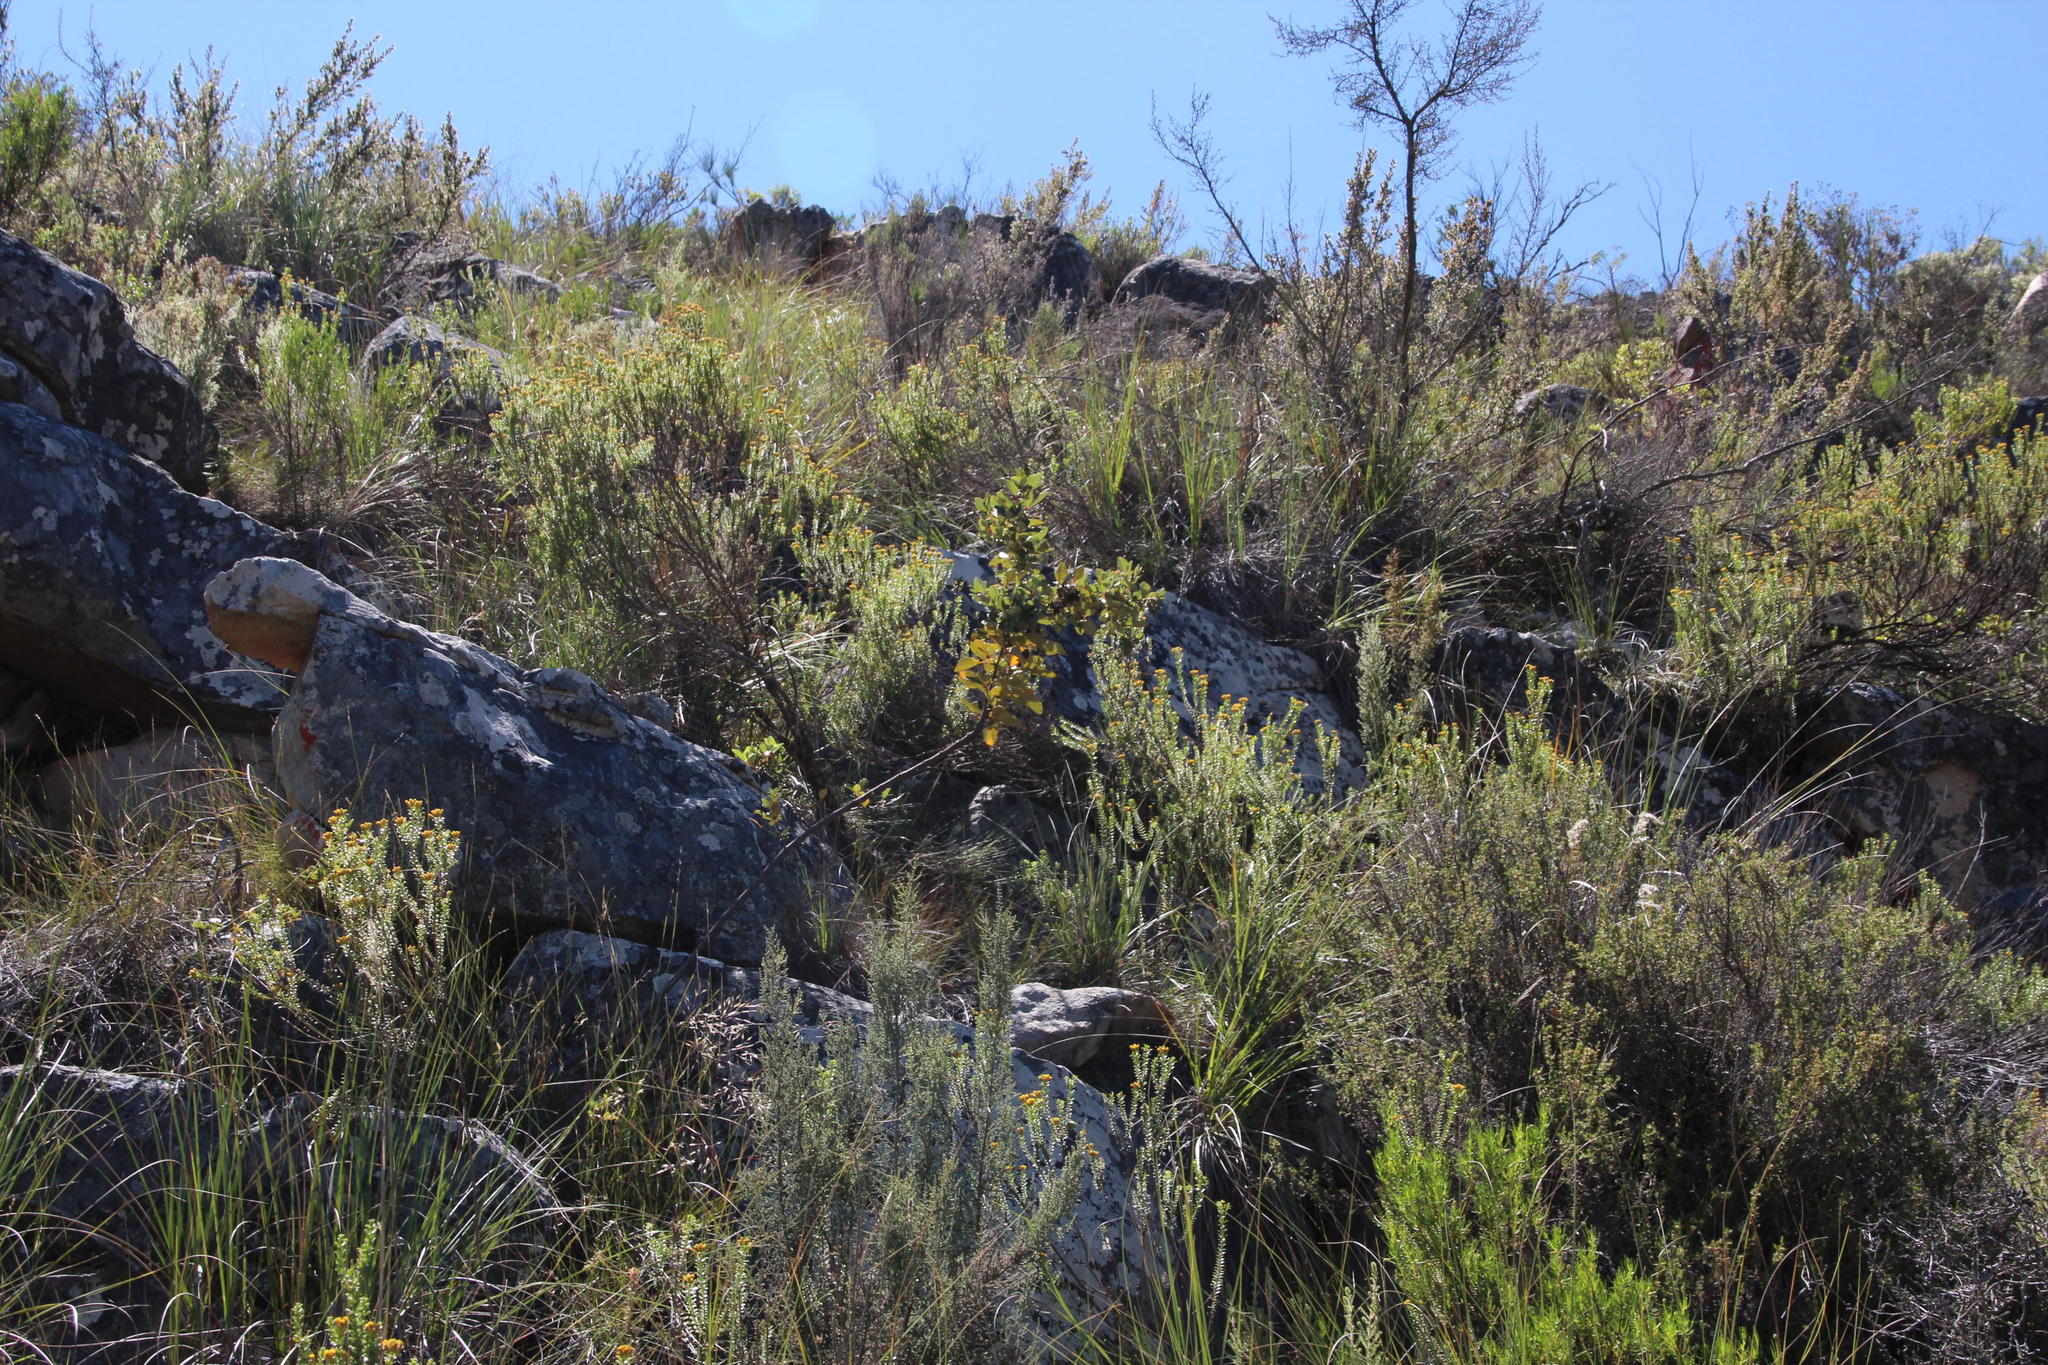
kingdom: Plantae
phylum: Tracheophyta
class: Magnoliopsida
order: Sapindales
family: Anacardiaceae
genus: Searsia
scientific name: Searsia tomentosa
